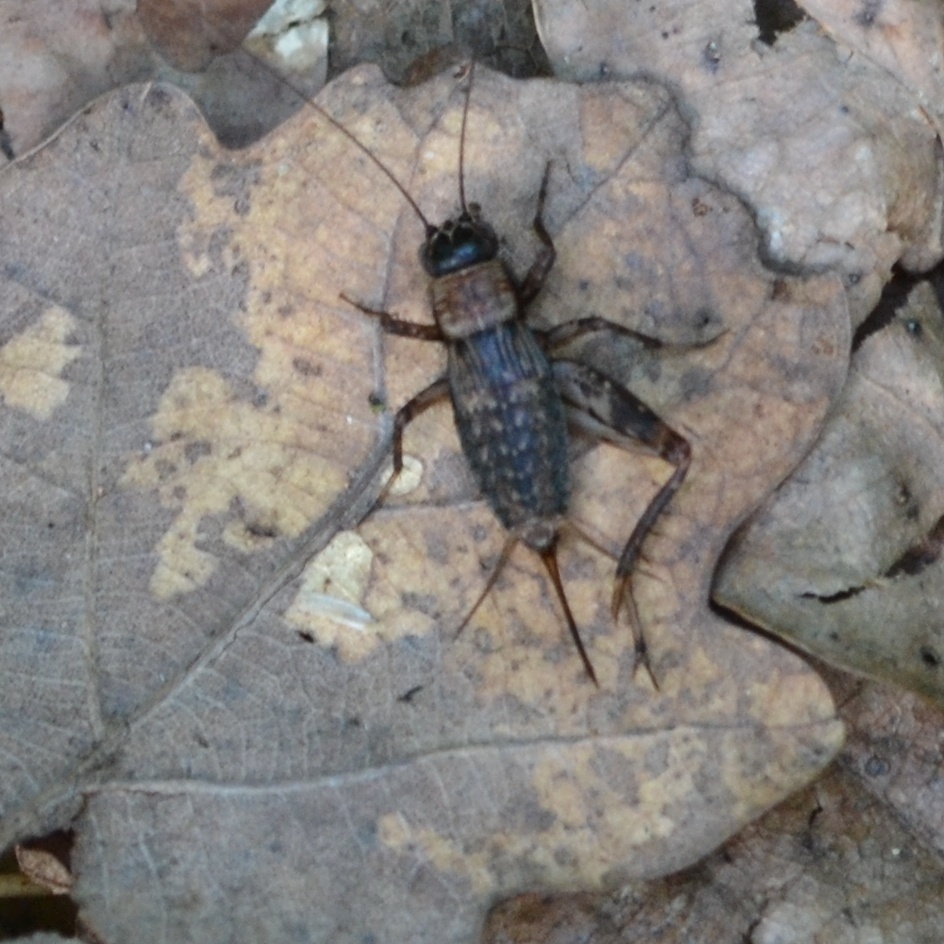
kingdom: Animalia
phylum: Arthropoda
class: Insecta
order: Orthoptera
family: Trigonidiidae
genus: Nemobius
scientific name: Nemobius sylvestris
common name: Wood-cricket
